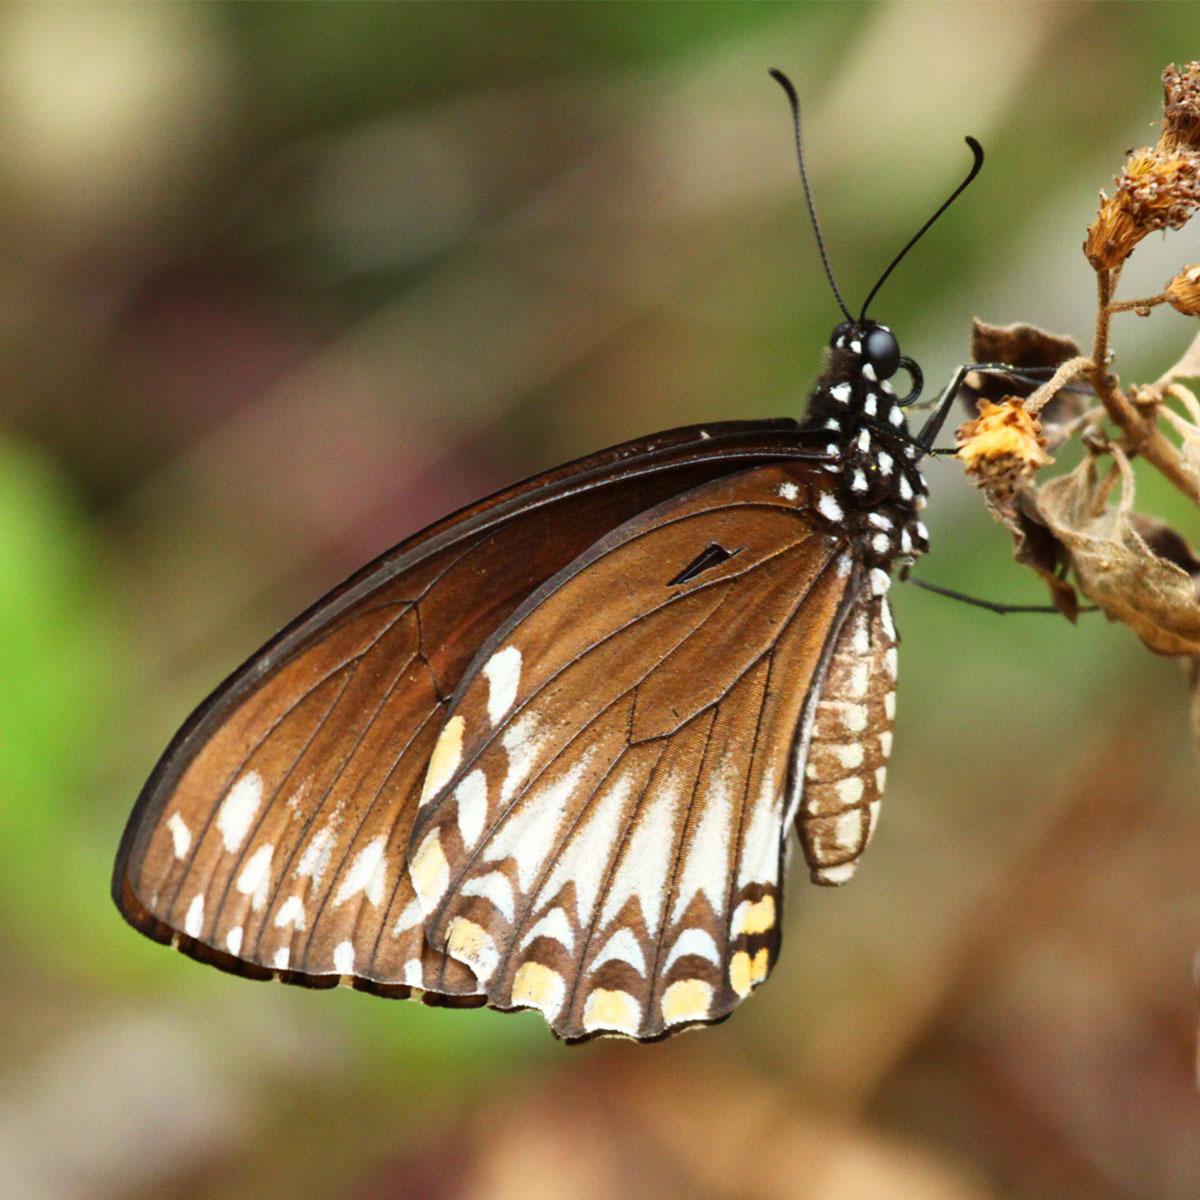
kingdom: Animalia
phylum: Arthropoda
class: Insecta
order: Lepidoptera
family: Papilionidae
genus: Chilasa
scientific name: Chilasa clytia
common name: Common mime
